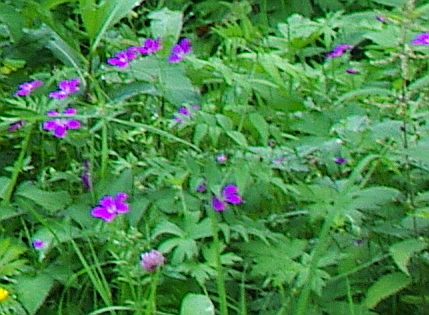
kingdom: Plantae
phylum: Tracheophyta
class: Magnoliopsida
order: Geraniales
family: Geraniaceae
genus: Geranium
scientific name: Geranium sylvaticum
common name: Wood crane's-bill
